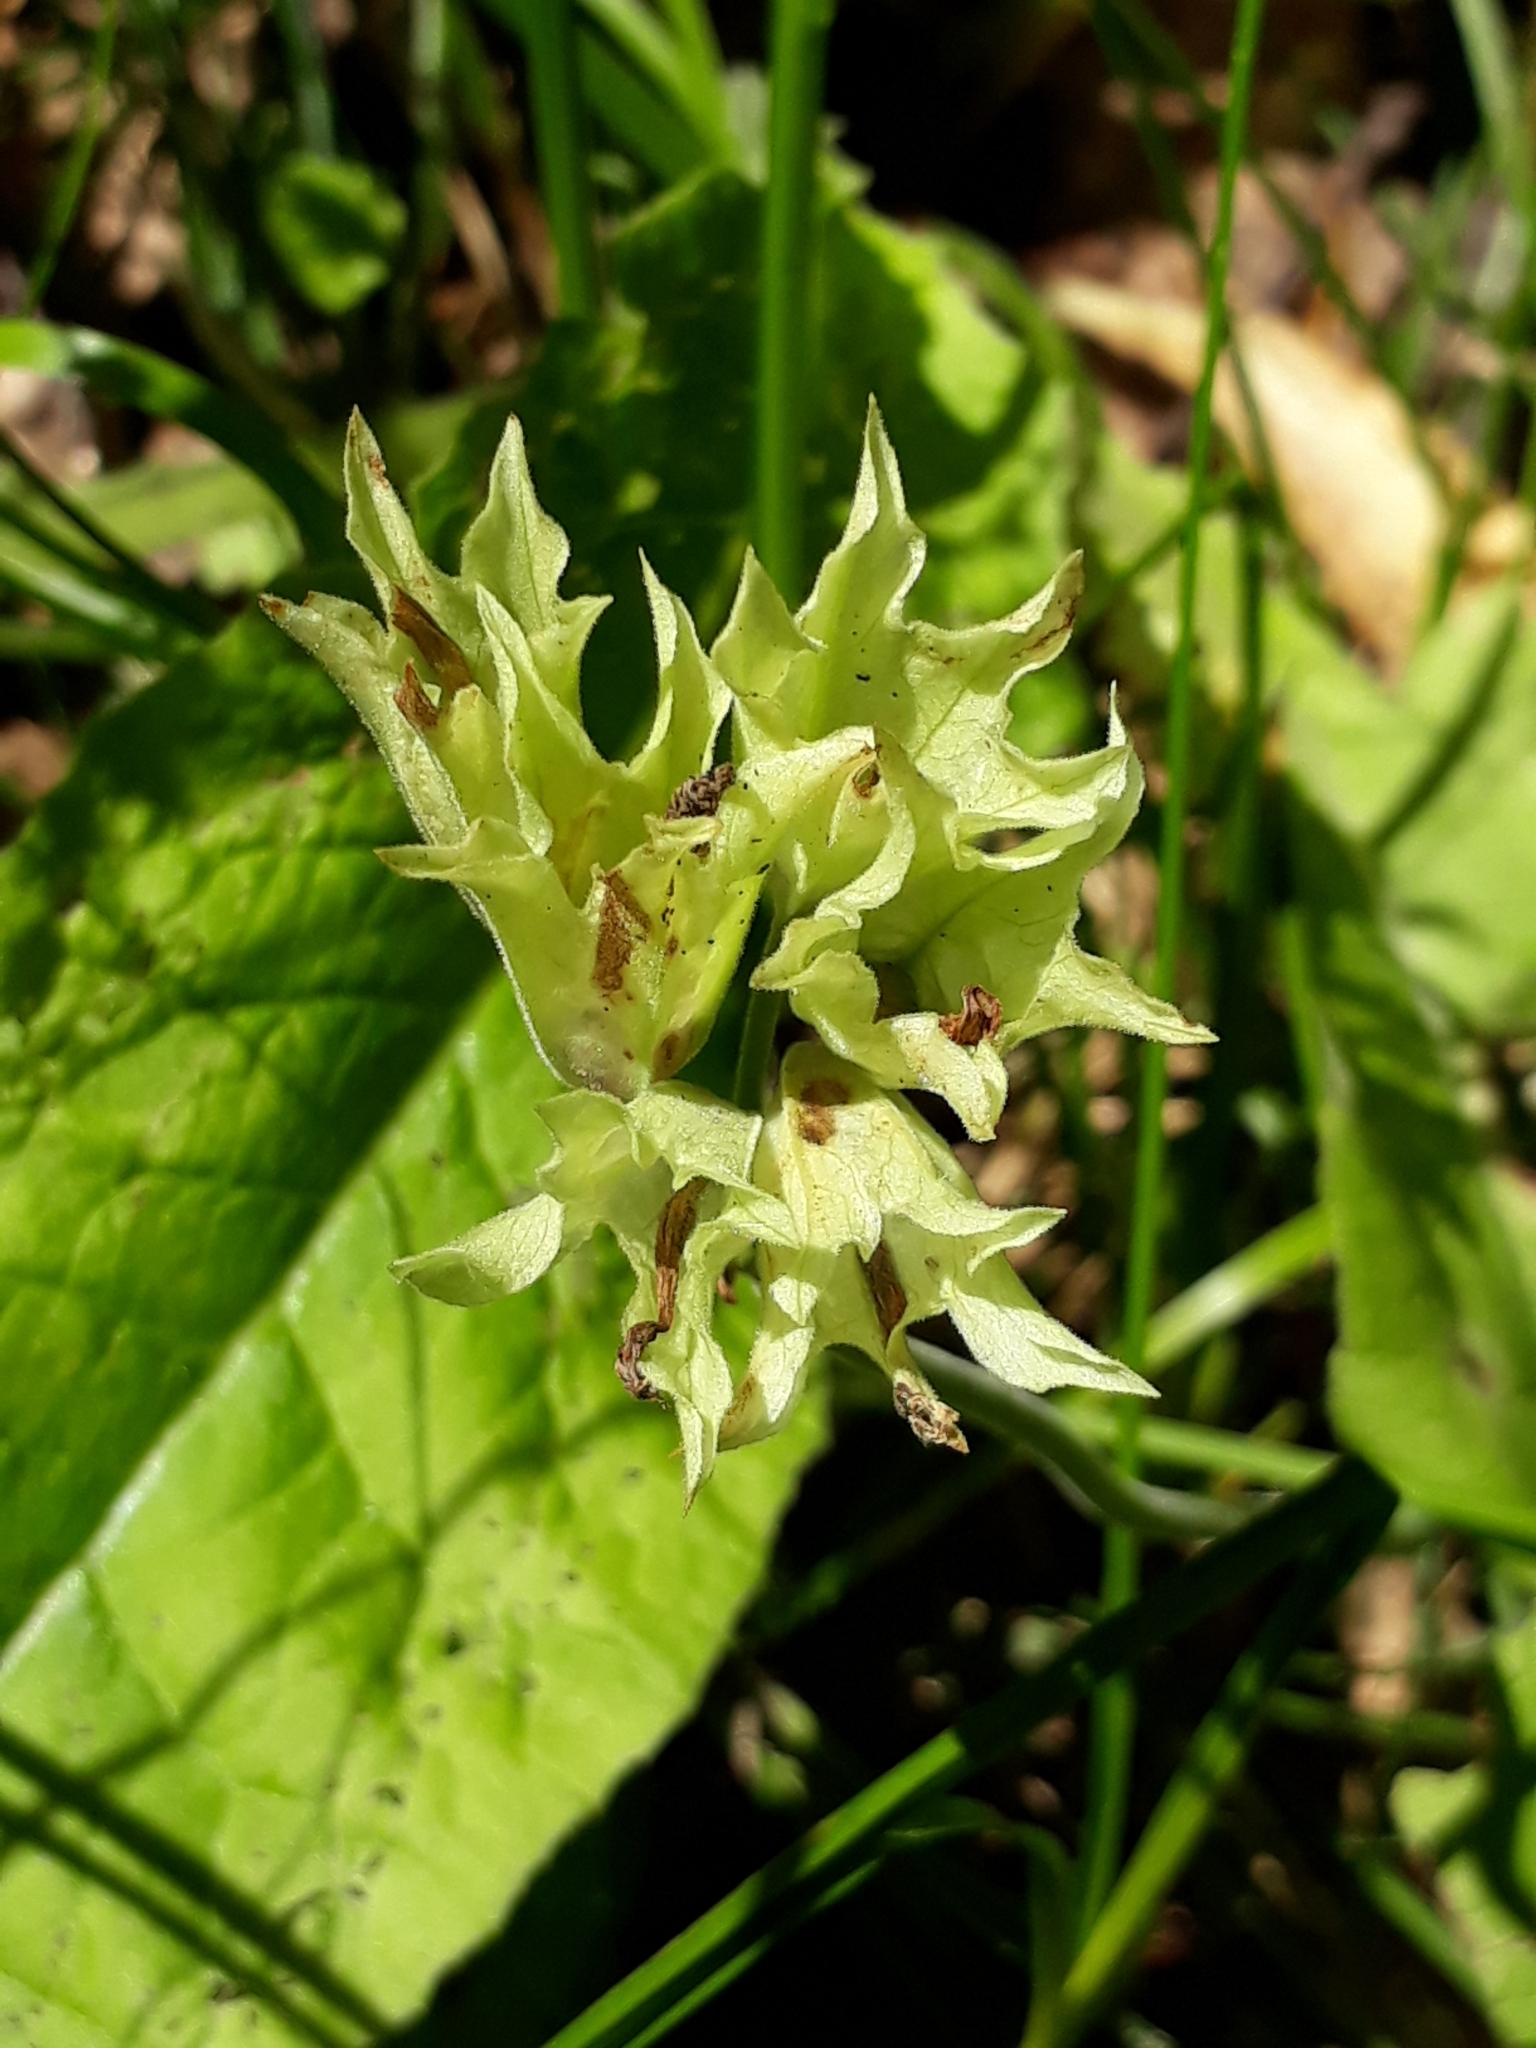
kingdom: Plantae
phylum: Tracheophyta
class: Magnoliopsida
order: Ericales
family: Primulaceae
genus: Primula
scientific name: Primula veris
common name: Cowslip
